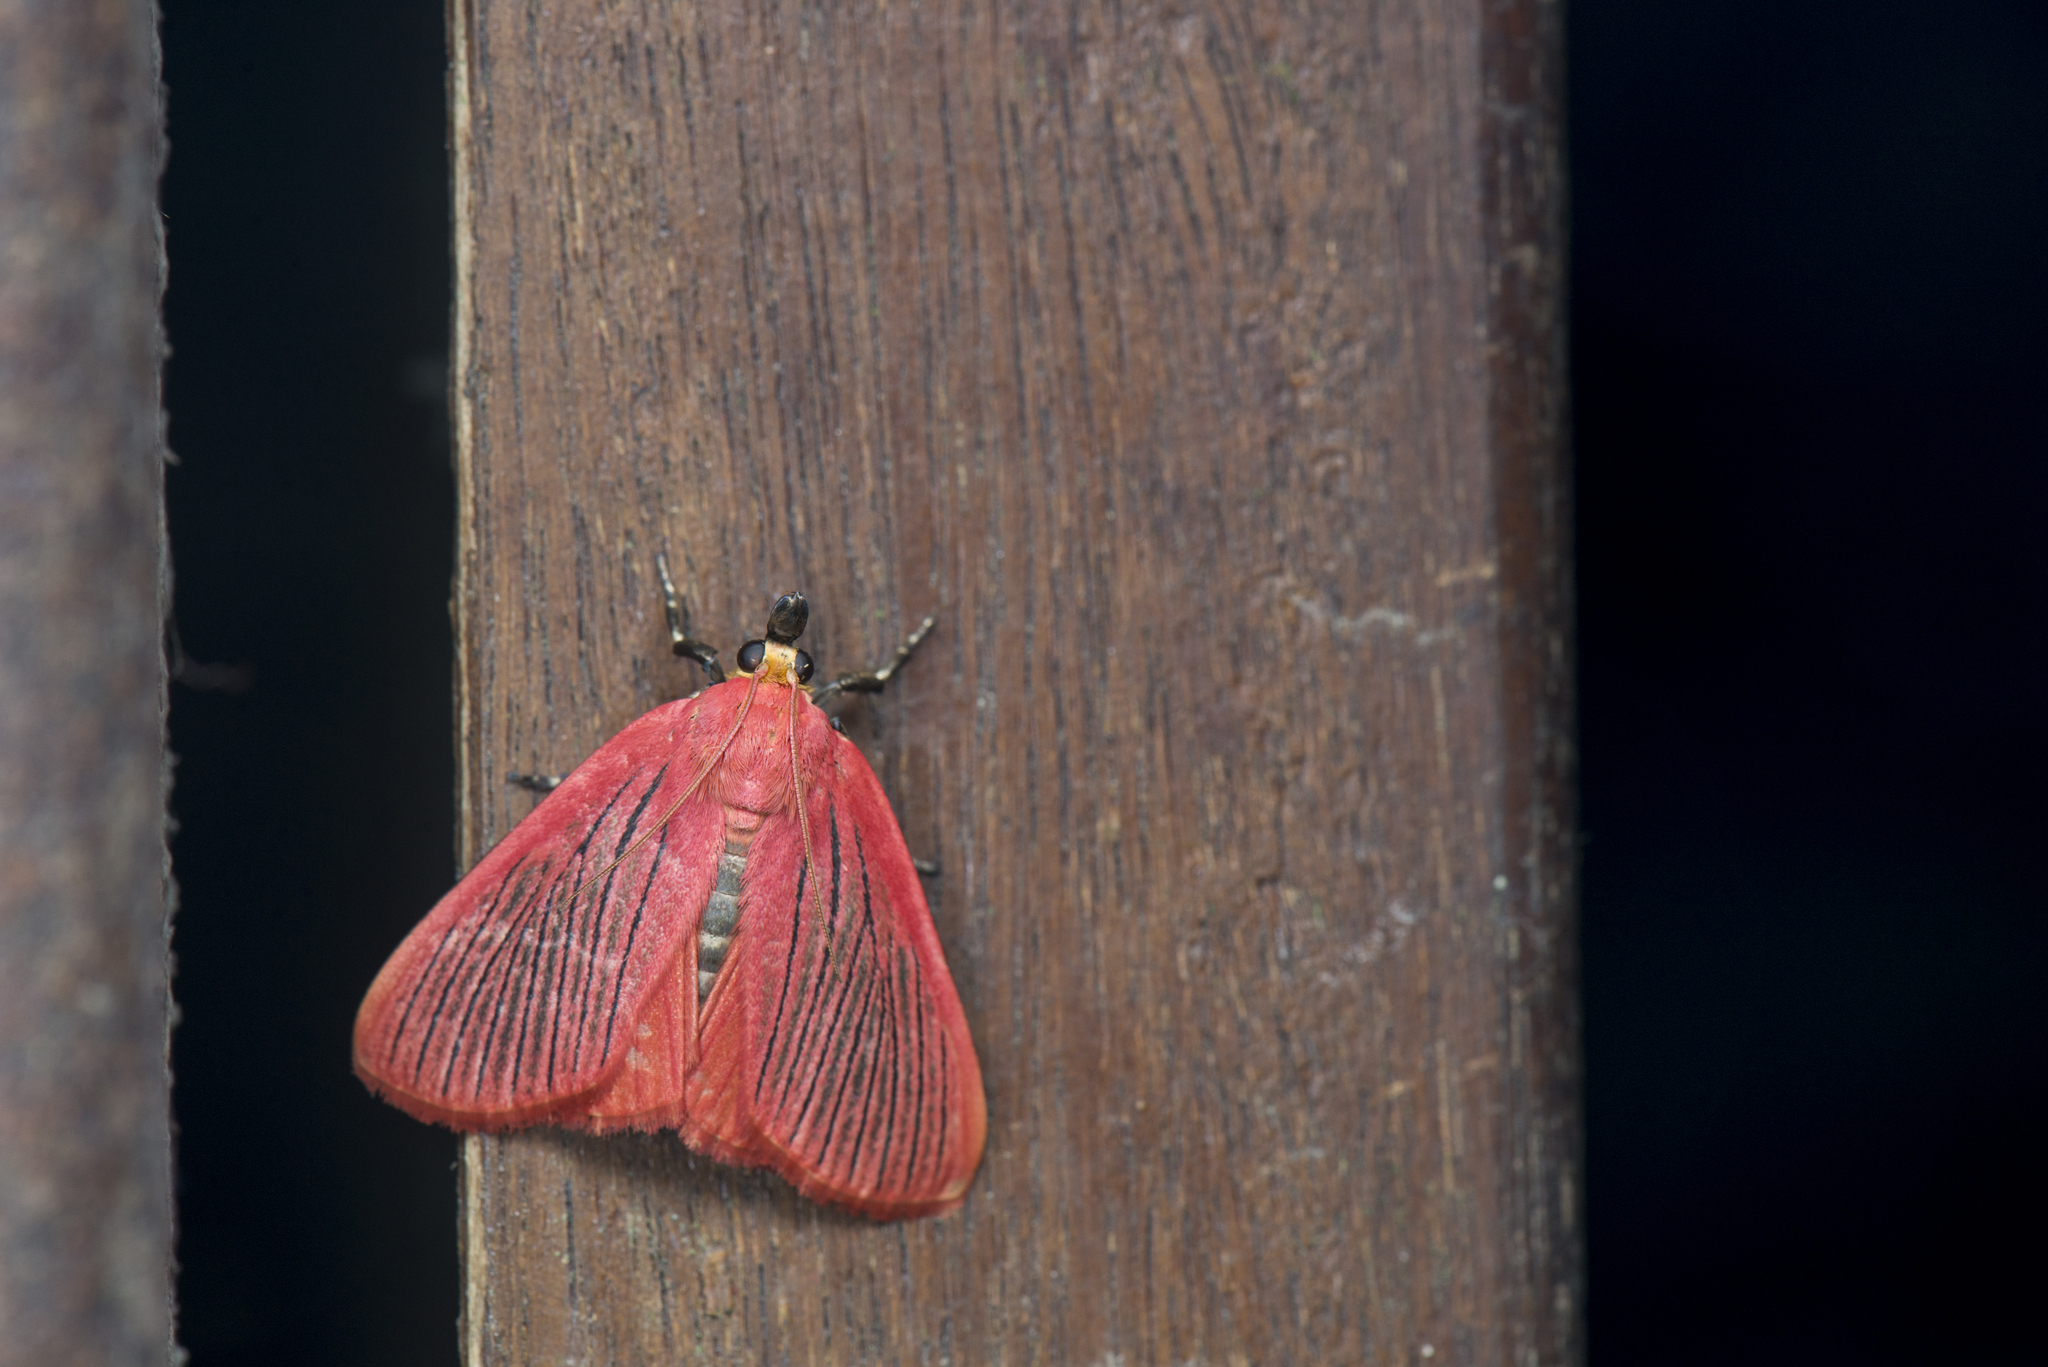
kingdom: Animalia
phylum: Arthropoda
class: Insecta
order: Lepidoptera
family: Pyralidae
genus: Arctioblepsis
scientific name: Arctioblepsis rubida
